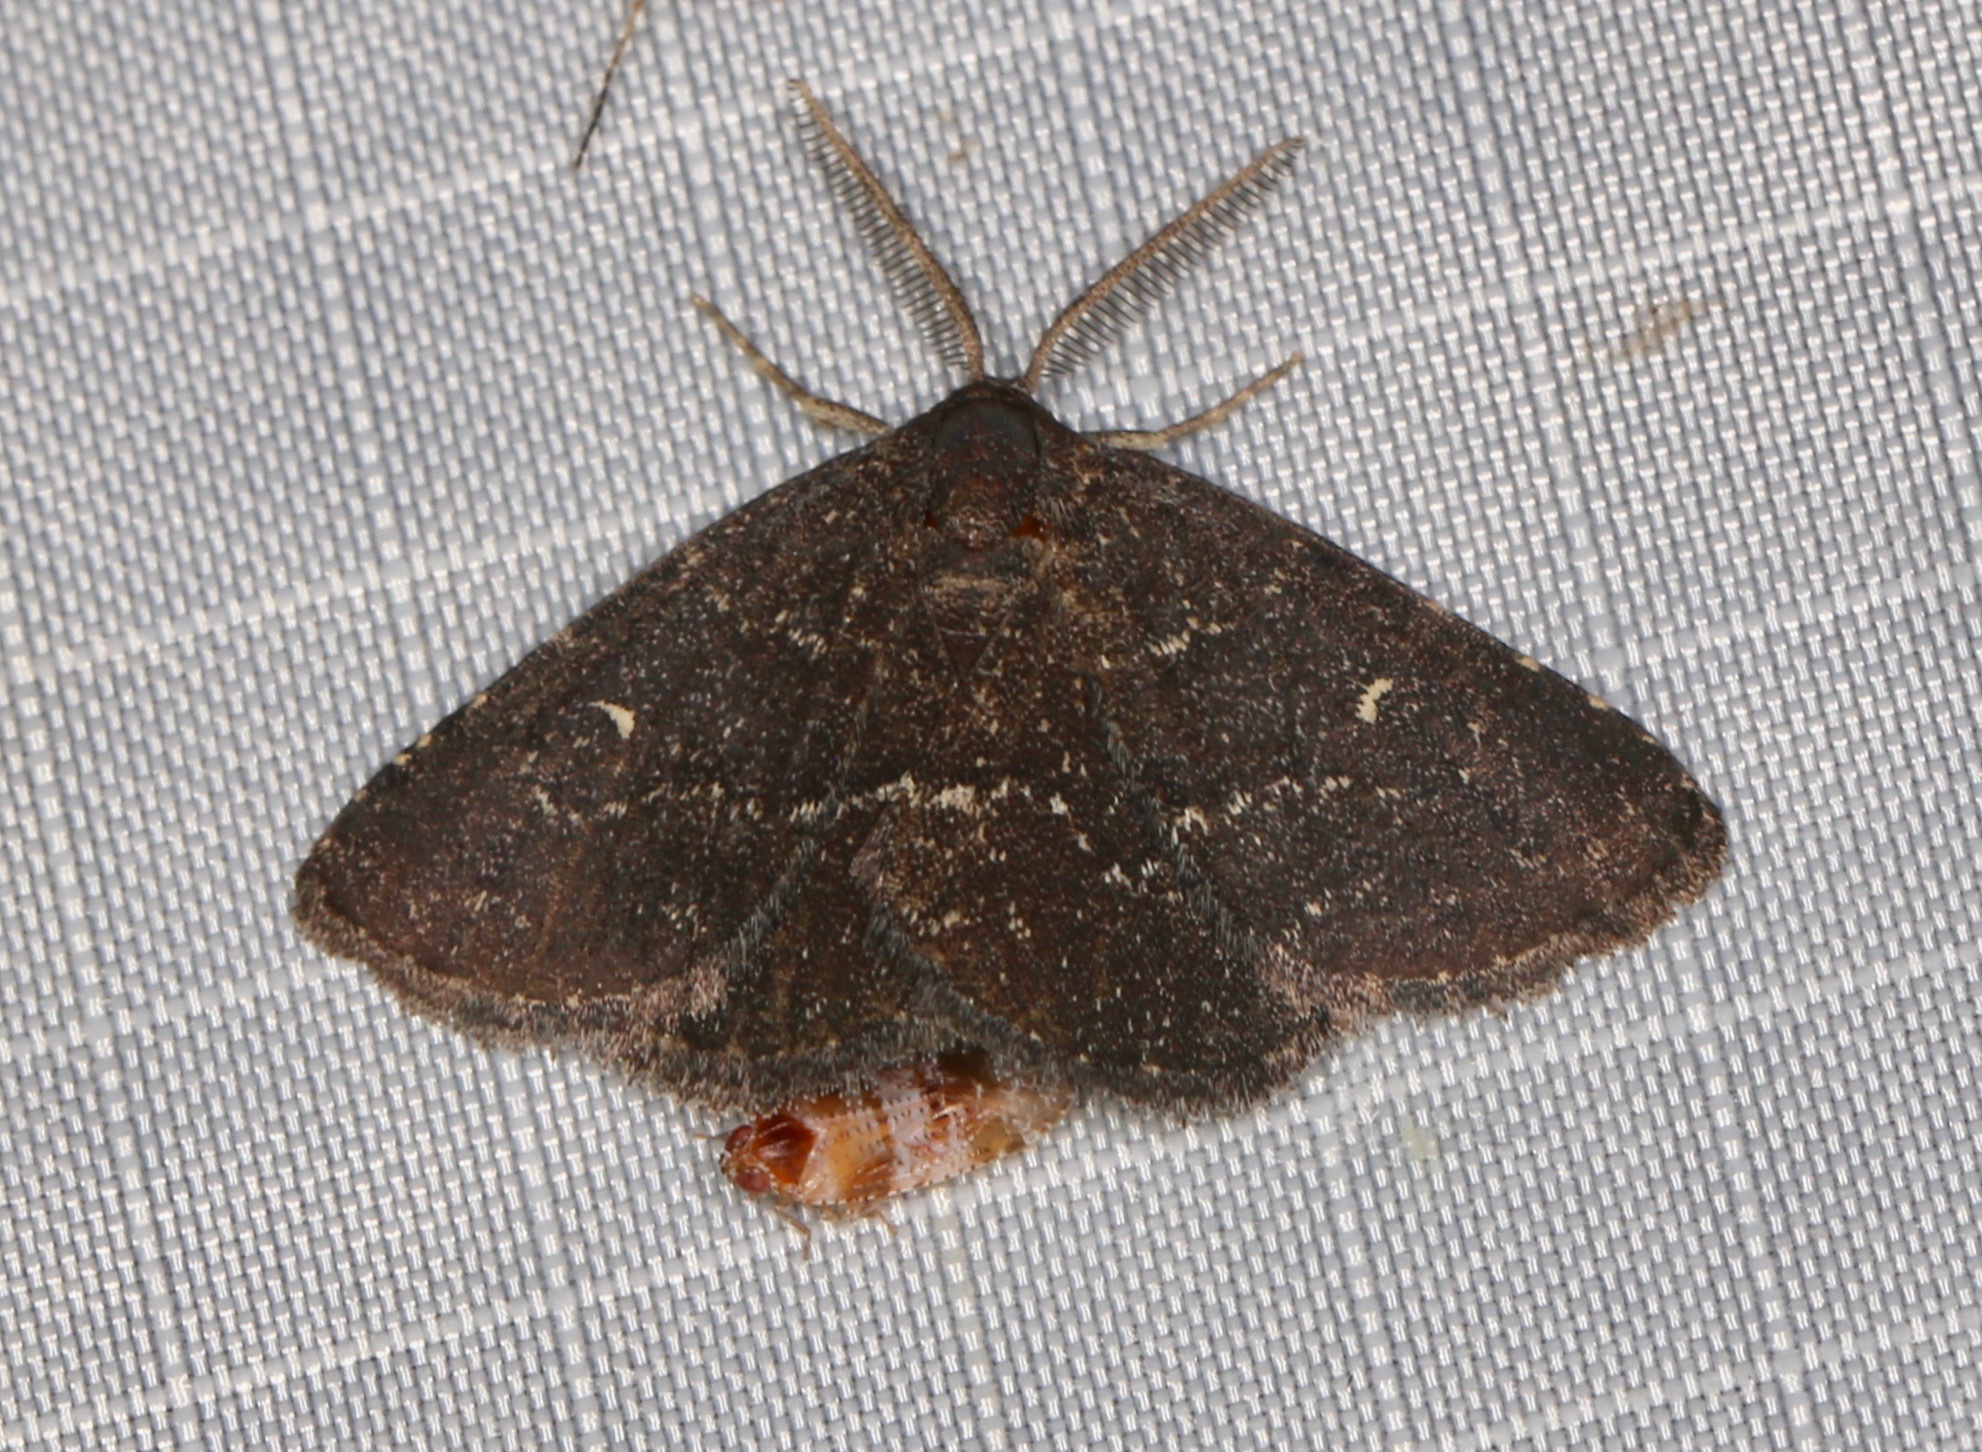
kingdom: Animalia
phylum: Arthropoda
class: Insecta
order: Lepidoptera
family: Erebidae
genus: Prosoparia
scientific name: Prosoparia floridana
